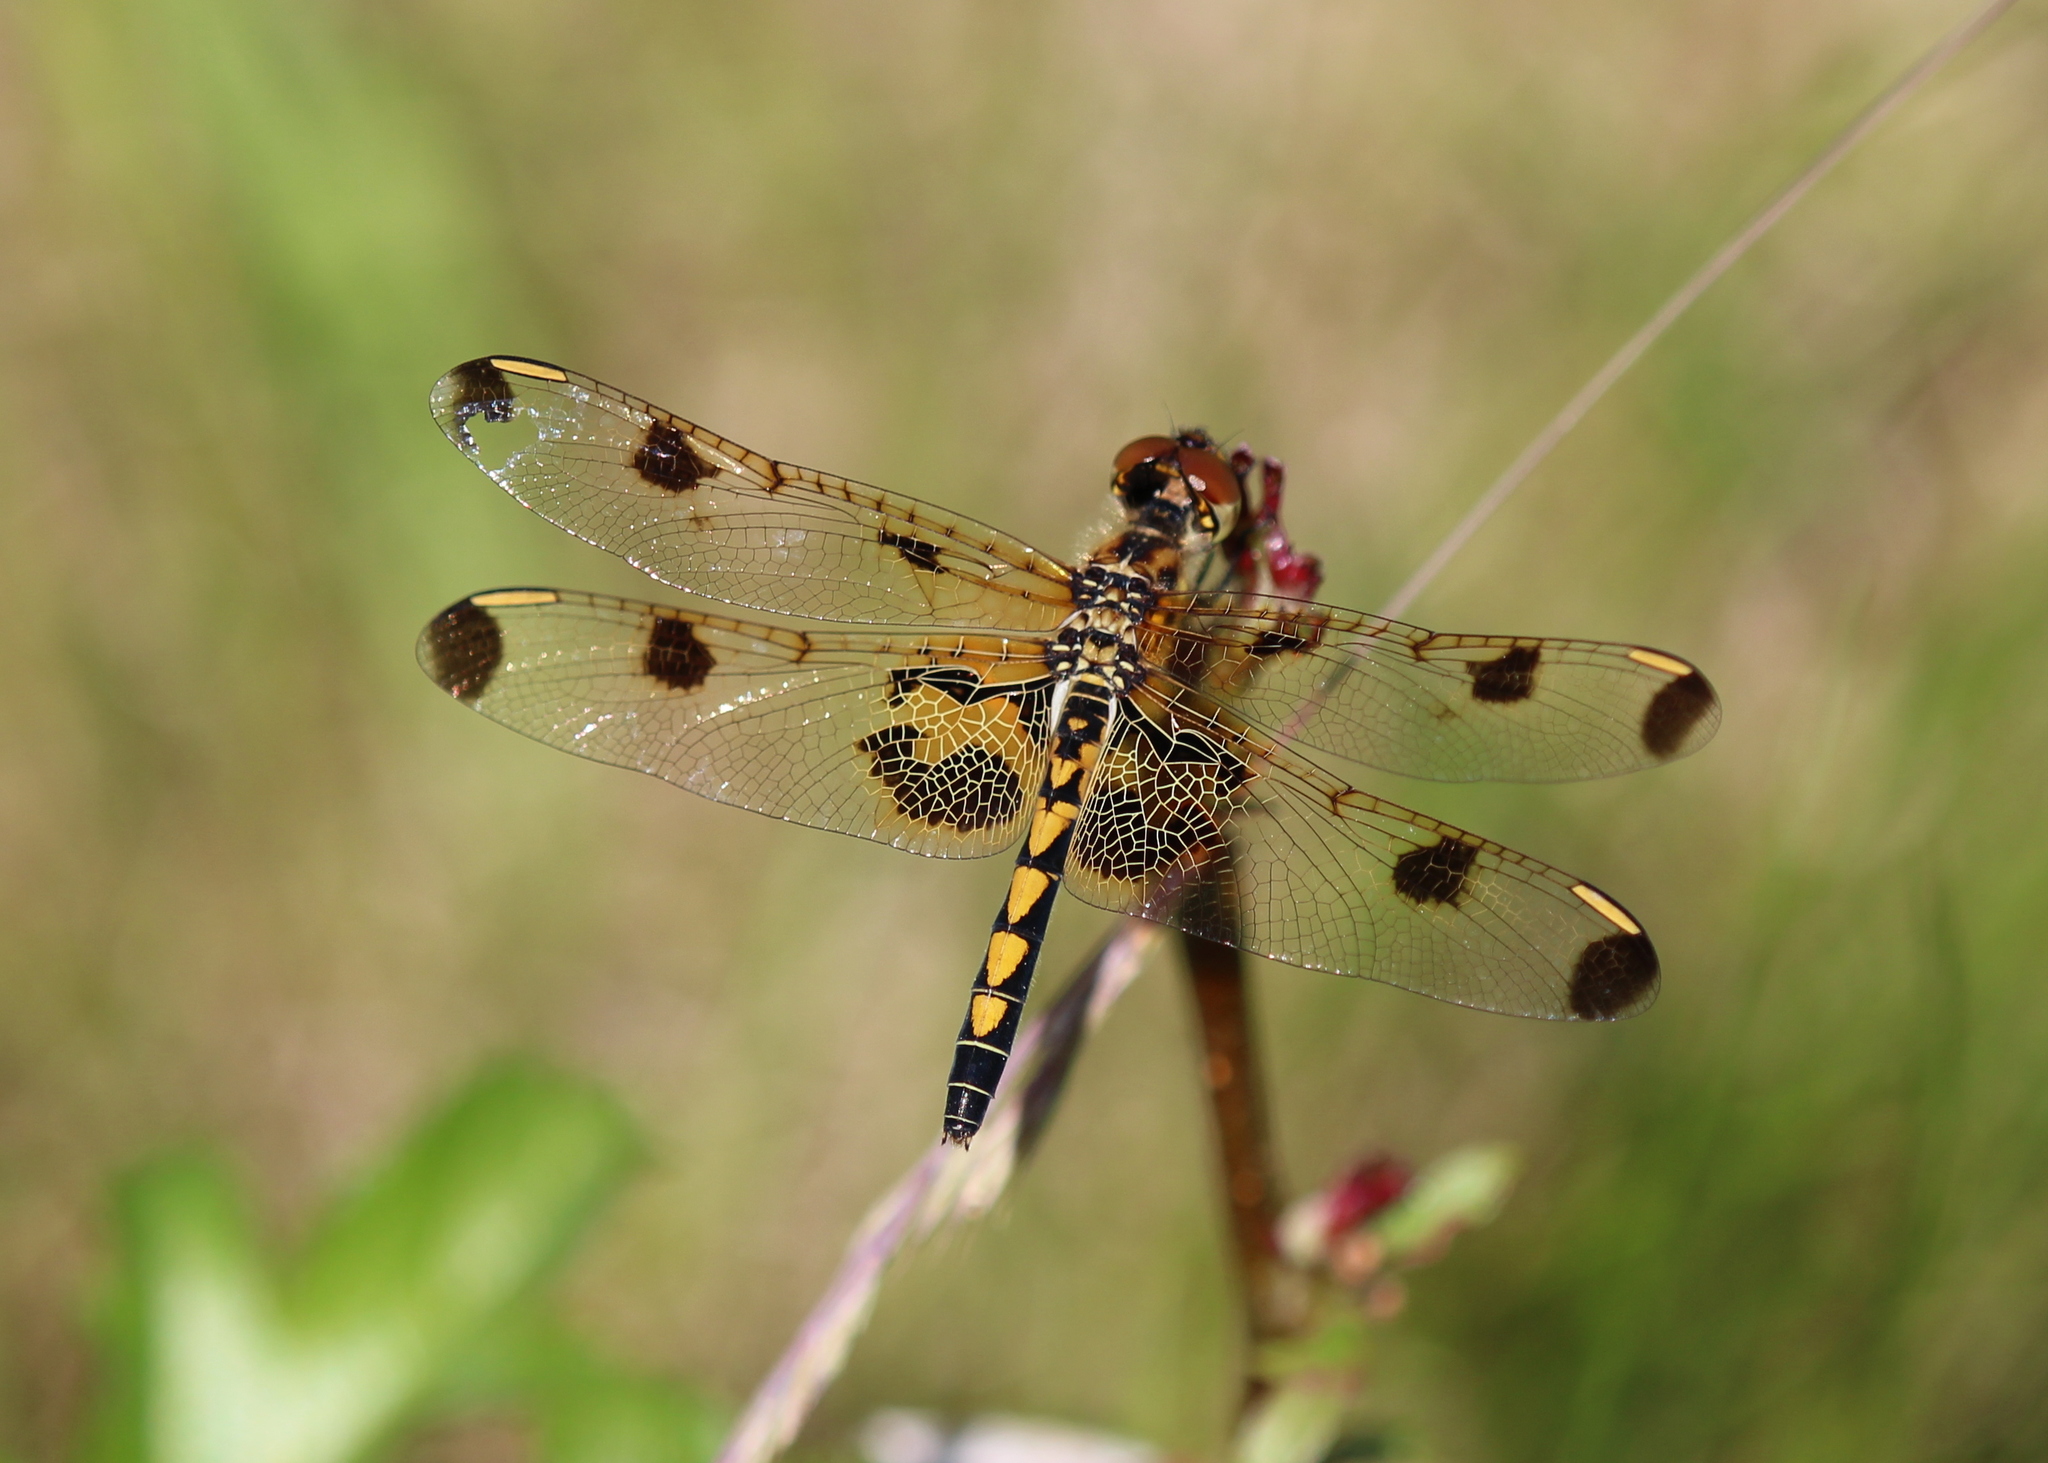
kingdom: Animalia
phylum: Arthropoda
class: Insecta
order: Odonata
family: Libellulidae
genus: Celithemis
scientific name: Celithemis elisa
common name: Calico pennant
